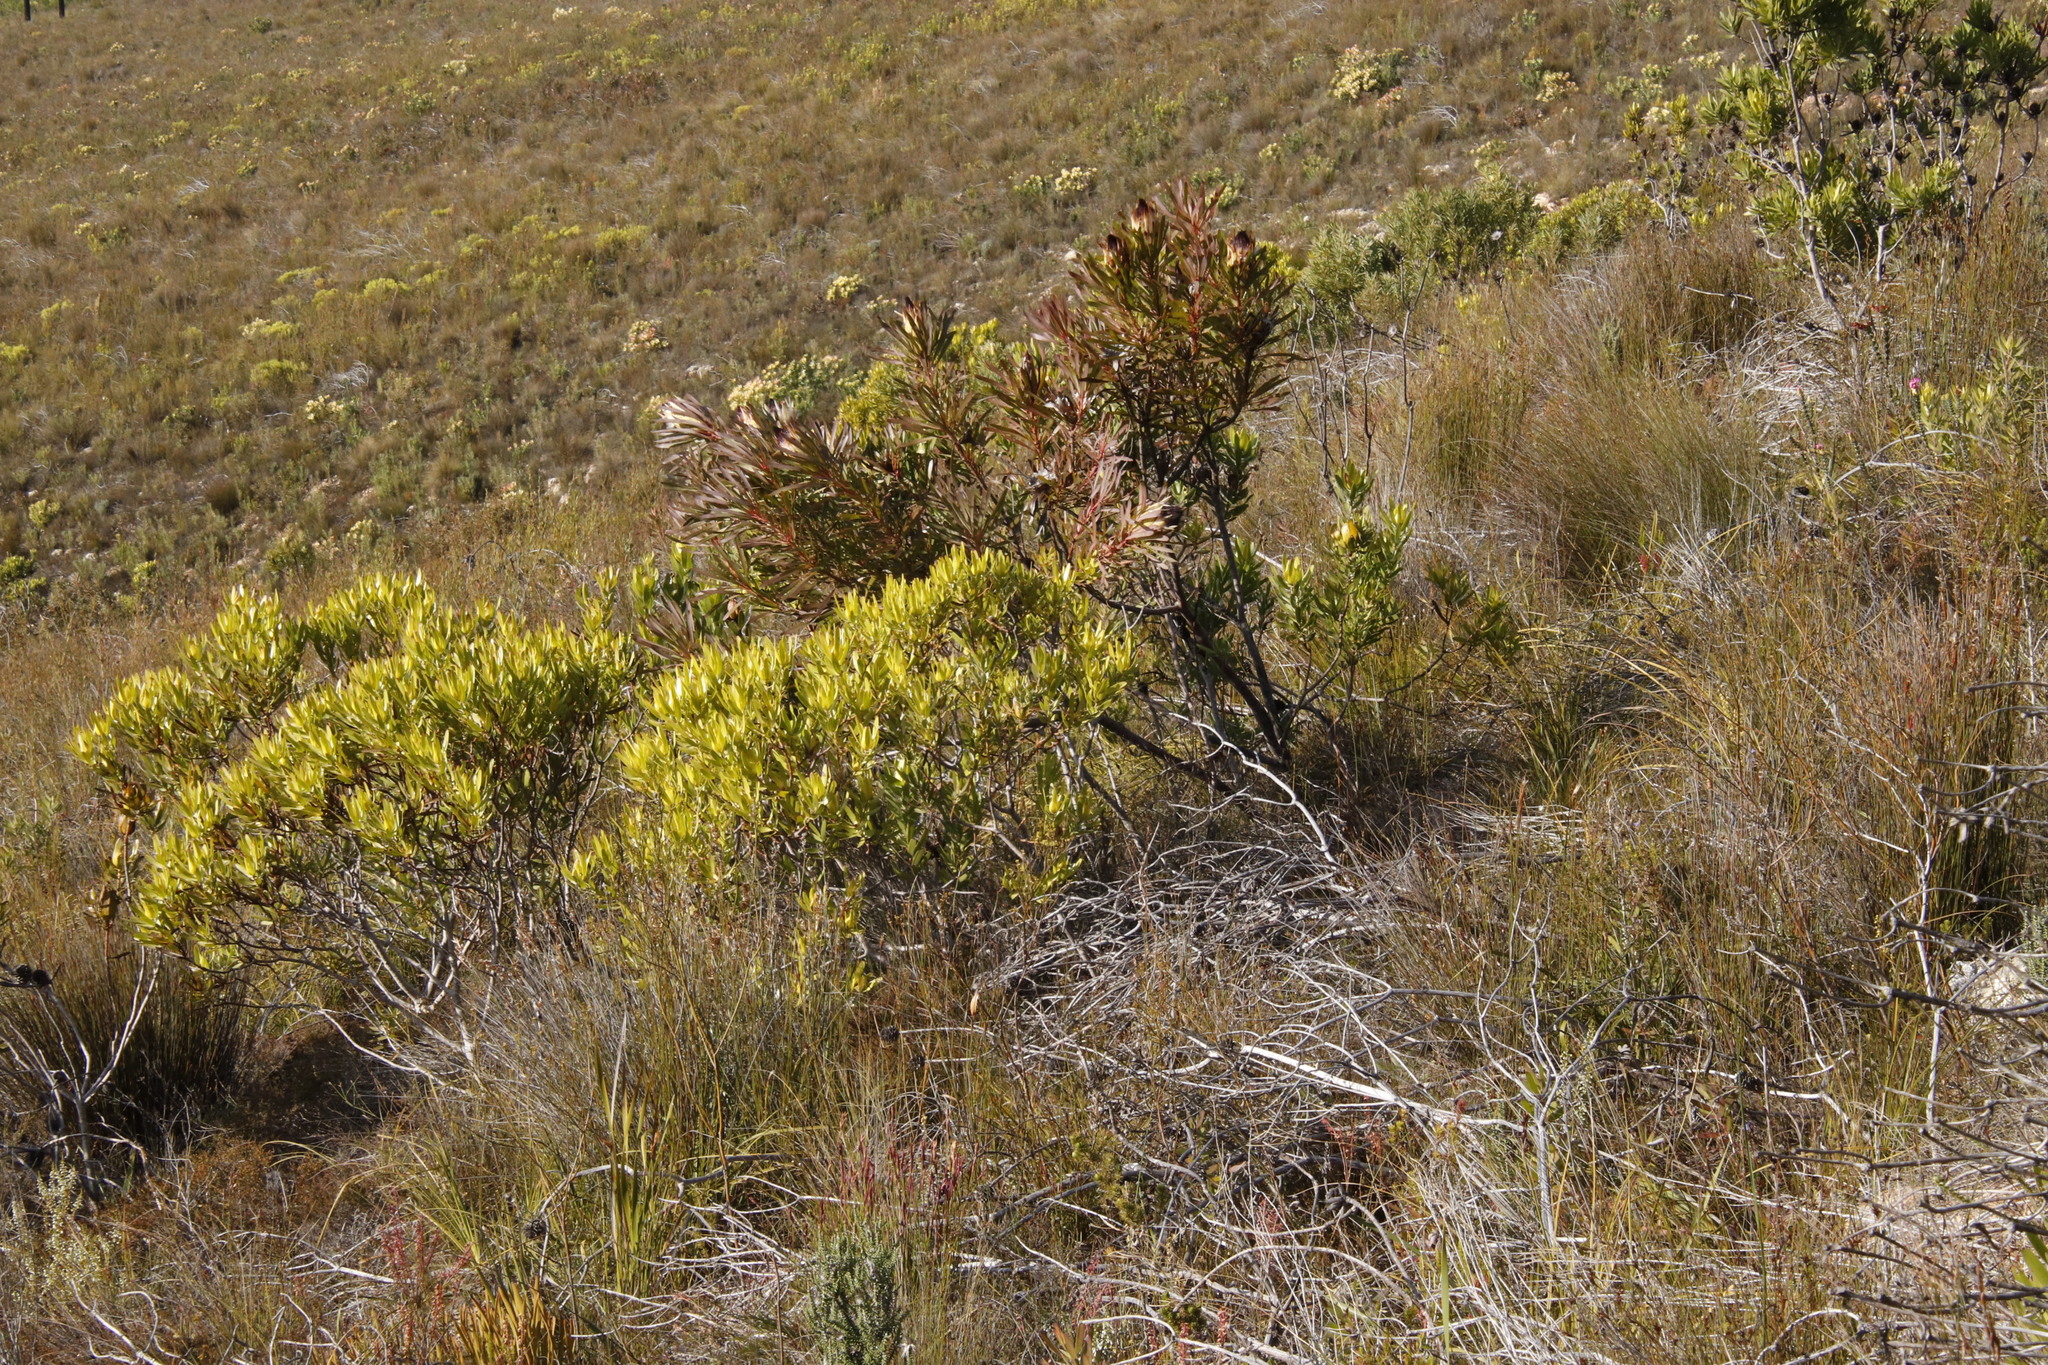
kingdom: Plantae
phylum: Tracheophyta
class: Magnoliopsida
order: Proteales
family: Proteaceae
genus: Protea
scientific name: Protea longifolia
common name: Long-leaf sugarbush
